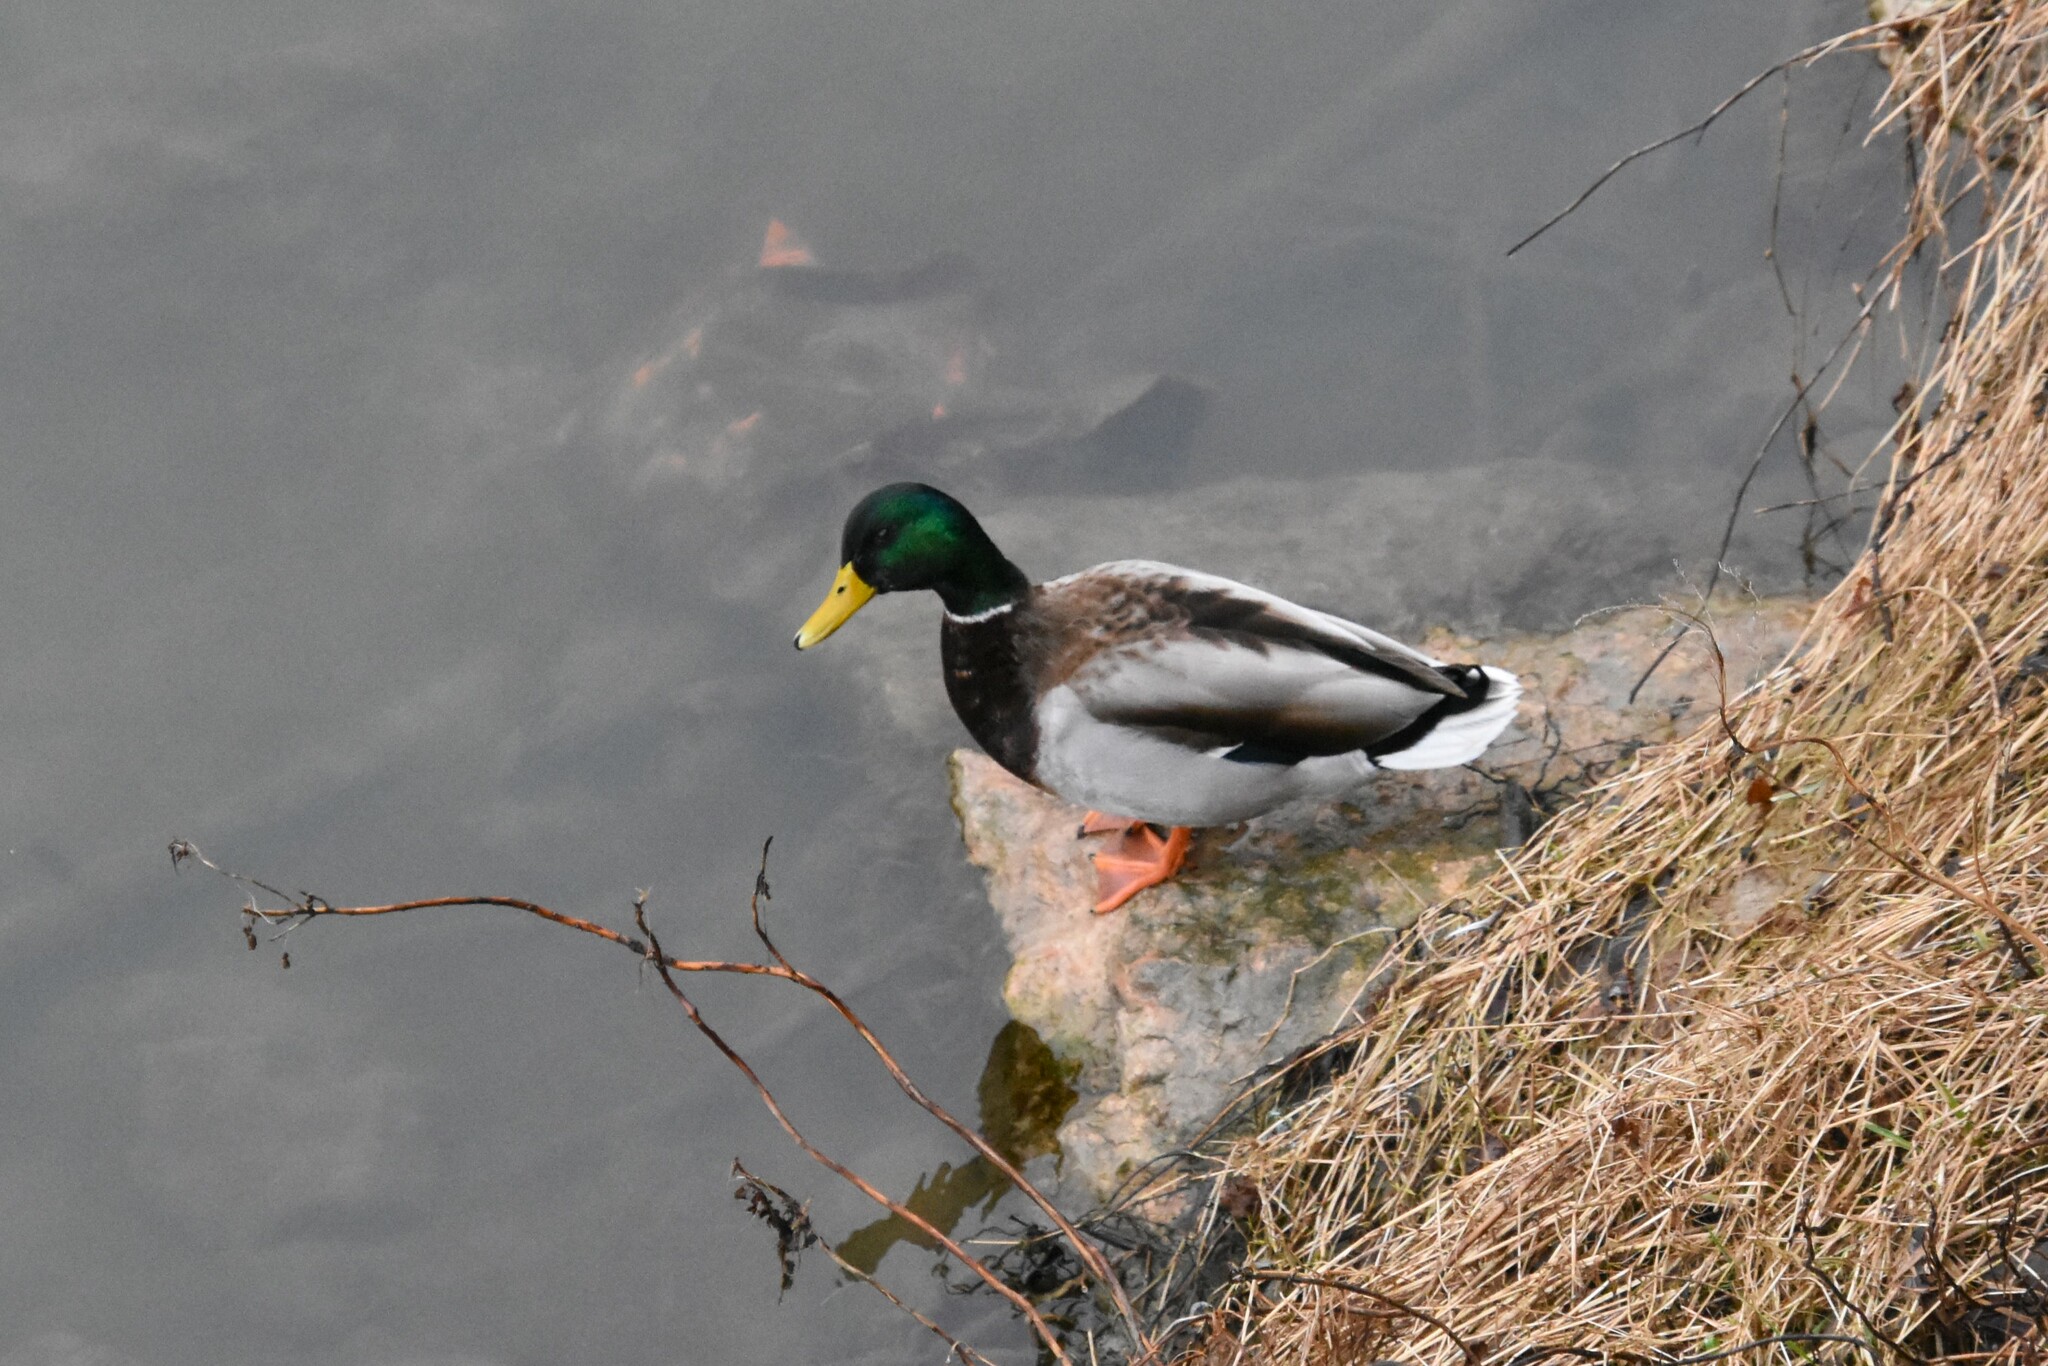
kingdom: Animalia
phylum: Chordata
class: Aves
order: Anseriformes
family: Anatidae
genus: Anas
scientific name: Anas platyrhynchos
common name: Mallard
